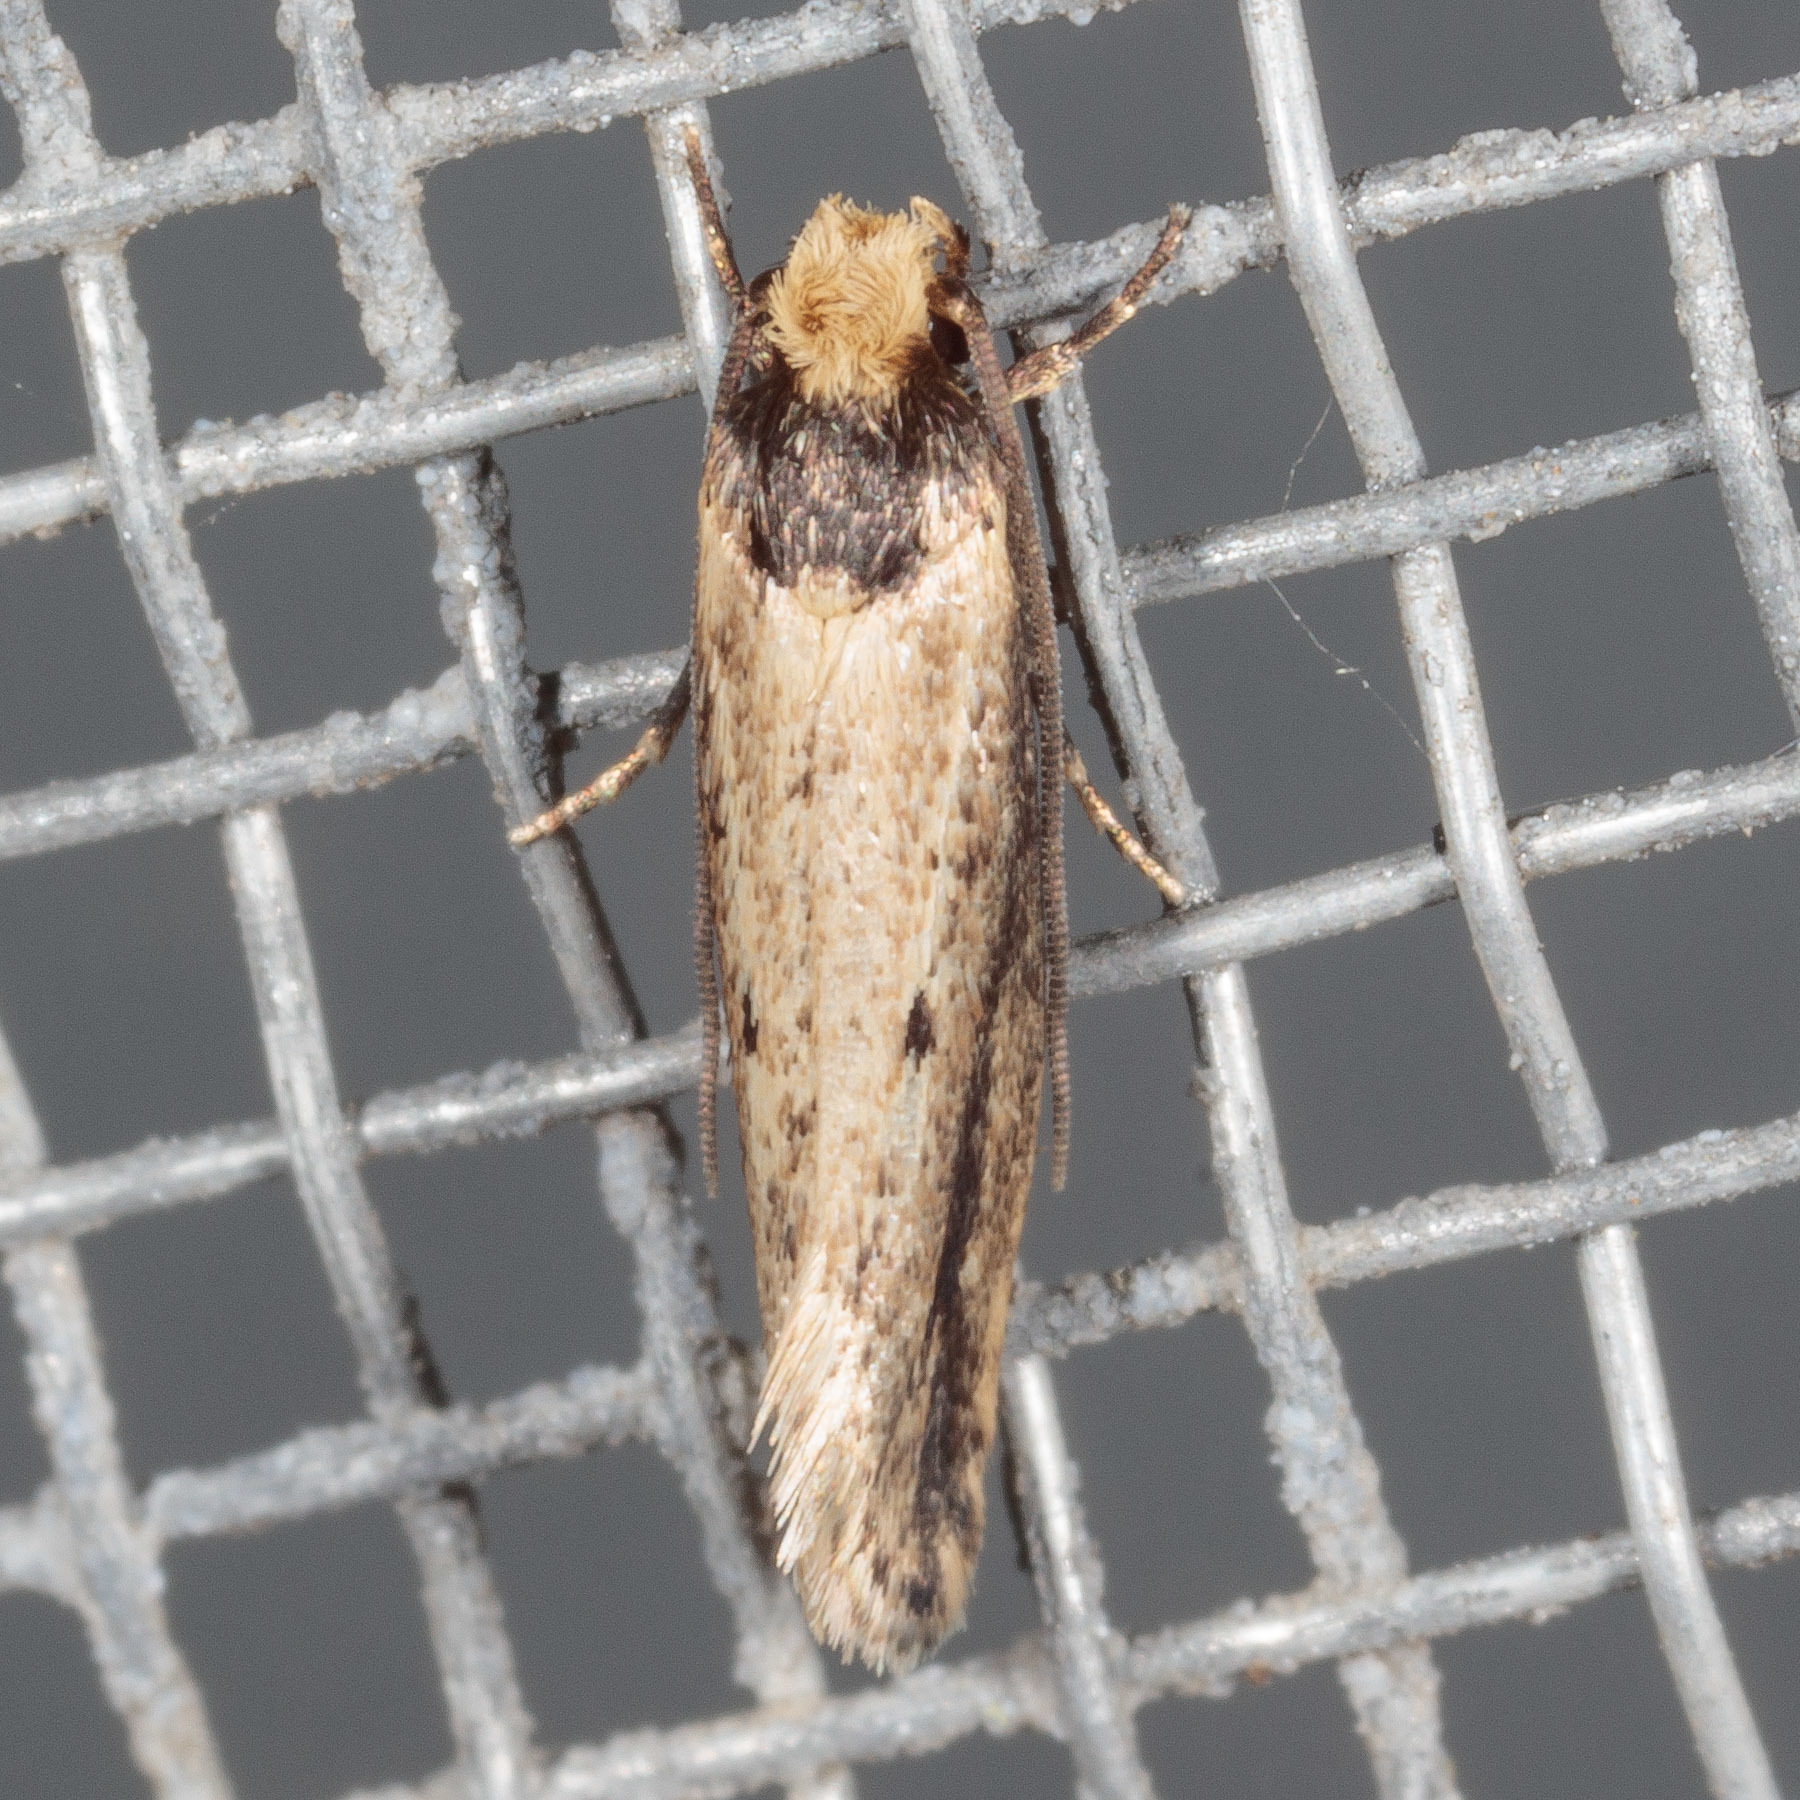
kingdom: Animalia
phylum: Arthropoda
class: Insecta
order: Lepidoptera
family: Tineidae
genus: Tinea
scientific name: Tinea apicimaculella
